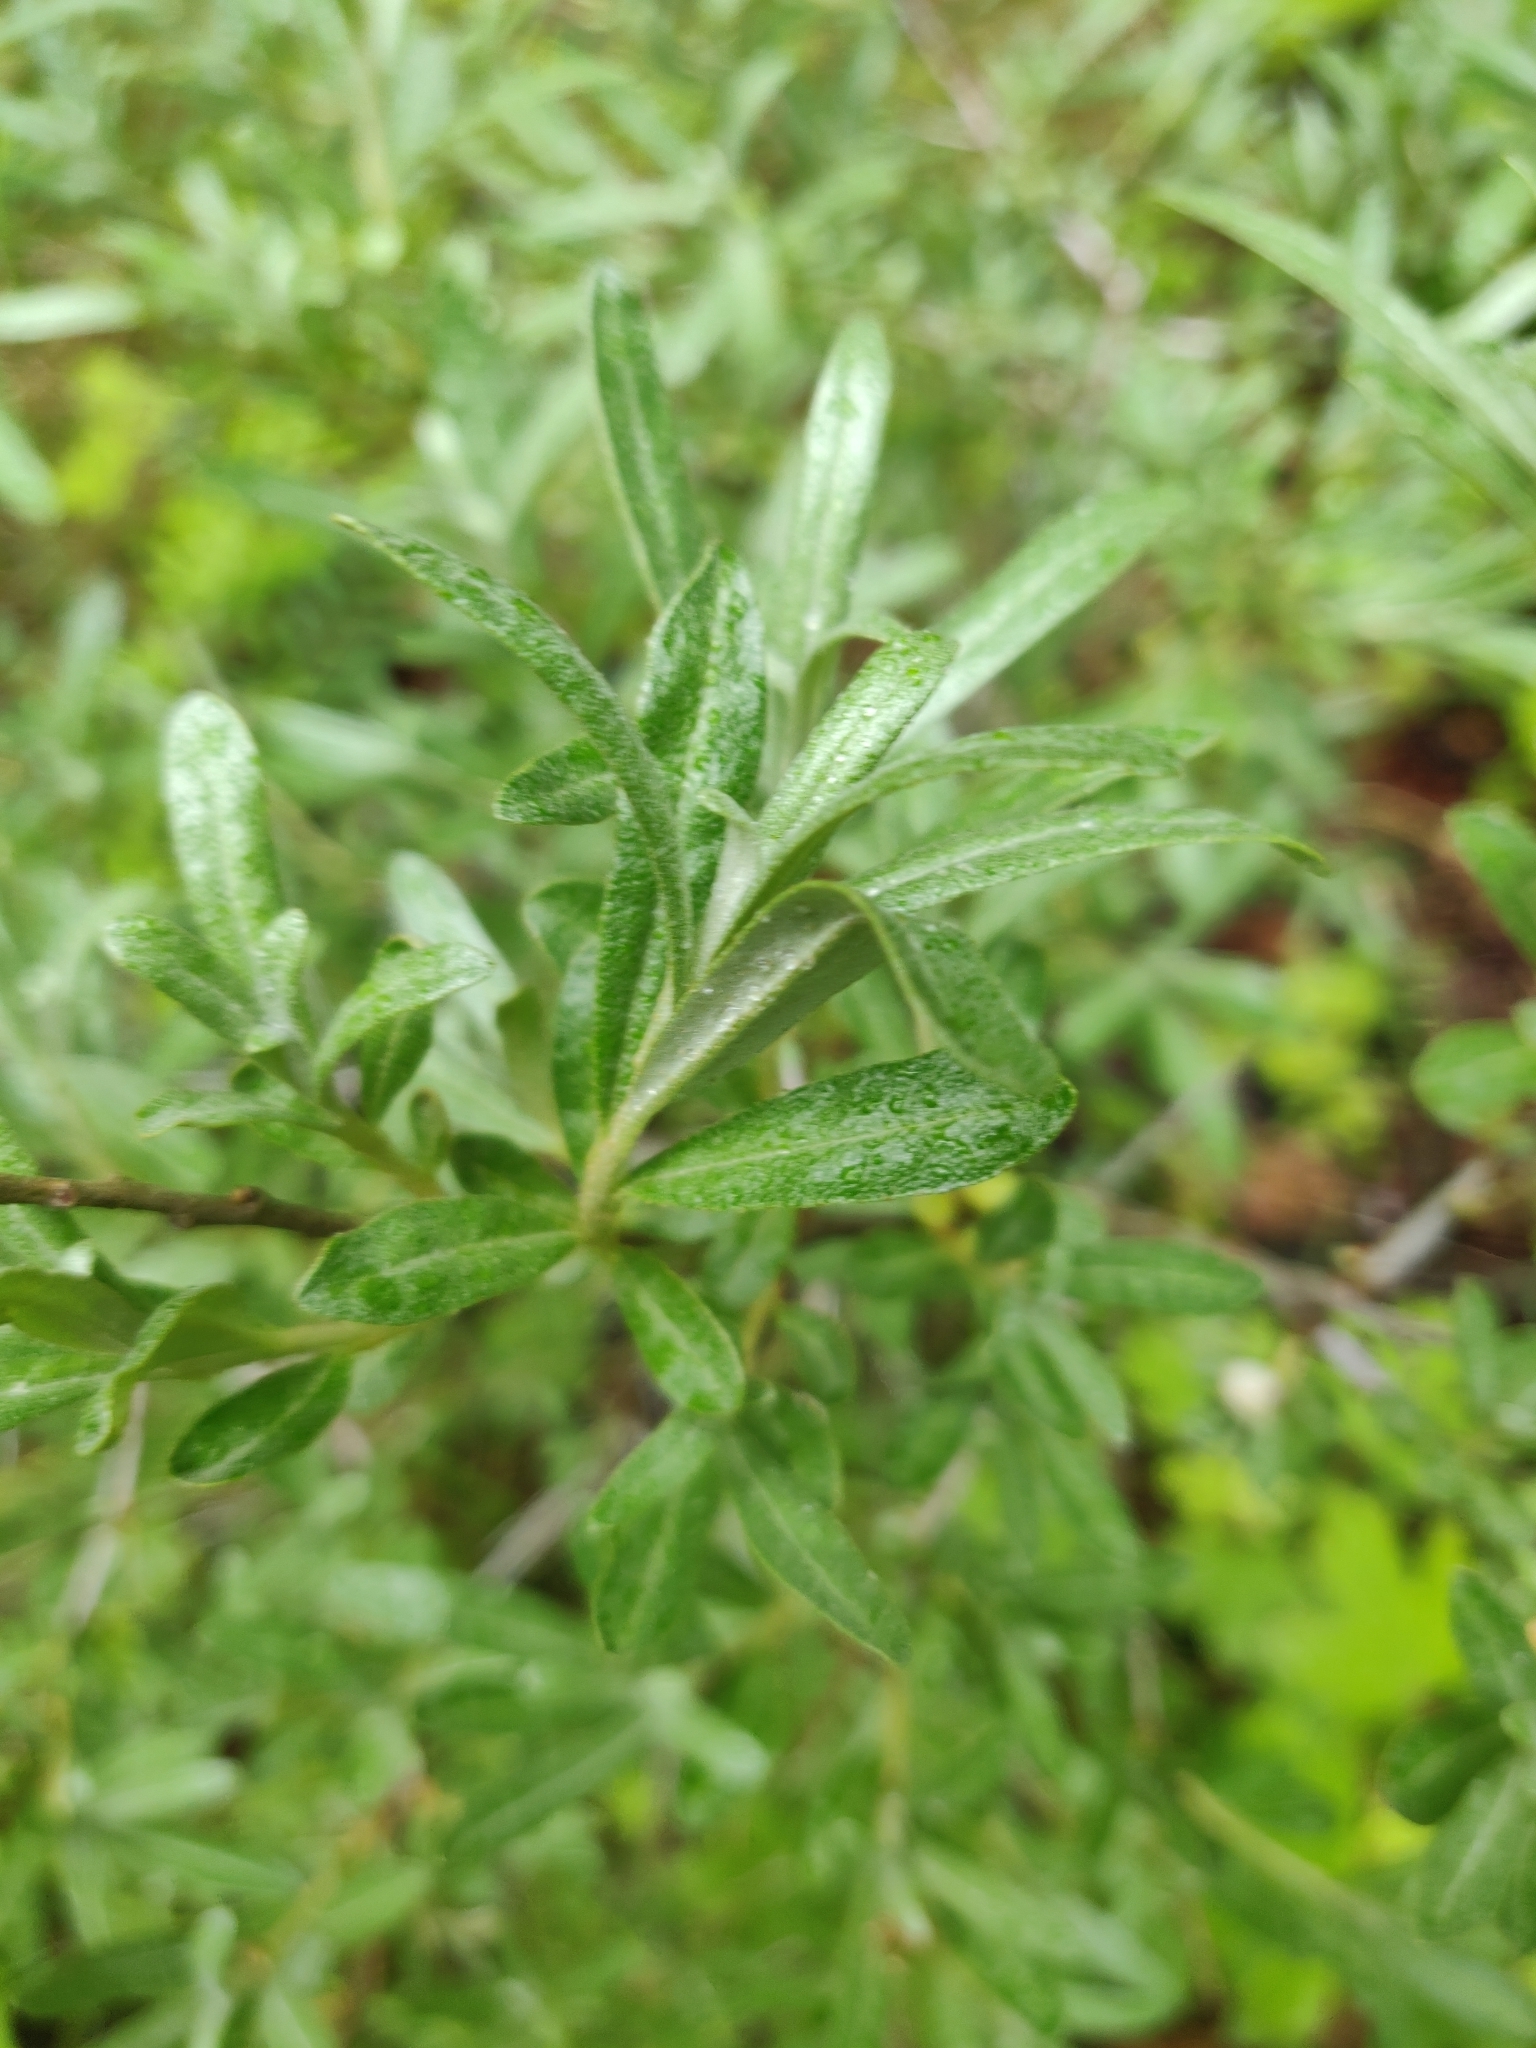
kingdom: Plantae
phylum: Tracheophyta
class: Magnoliopsida
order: Rosales
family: Elaeagnaceae
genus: Hippophae
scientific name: Hippophae rhamnoides
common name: Sea-buckthorn
